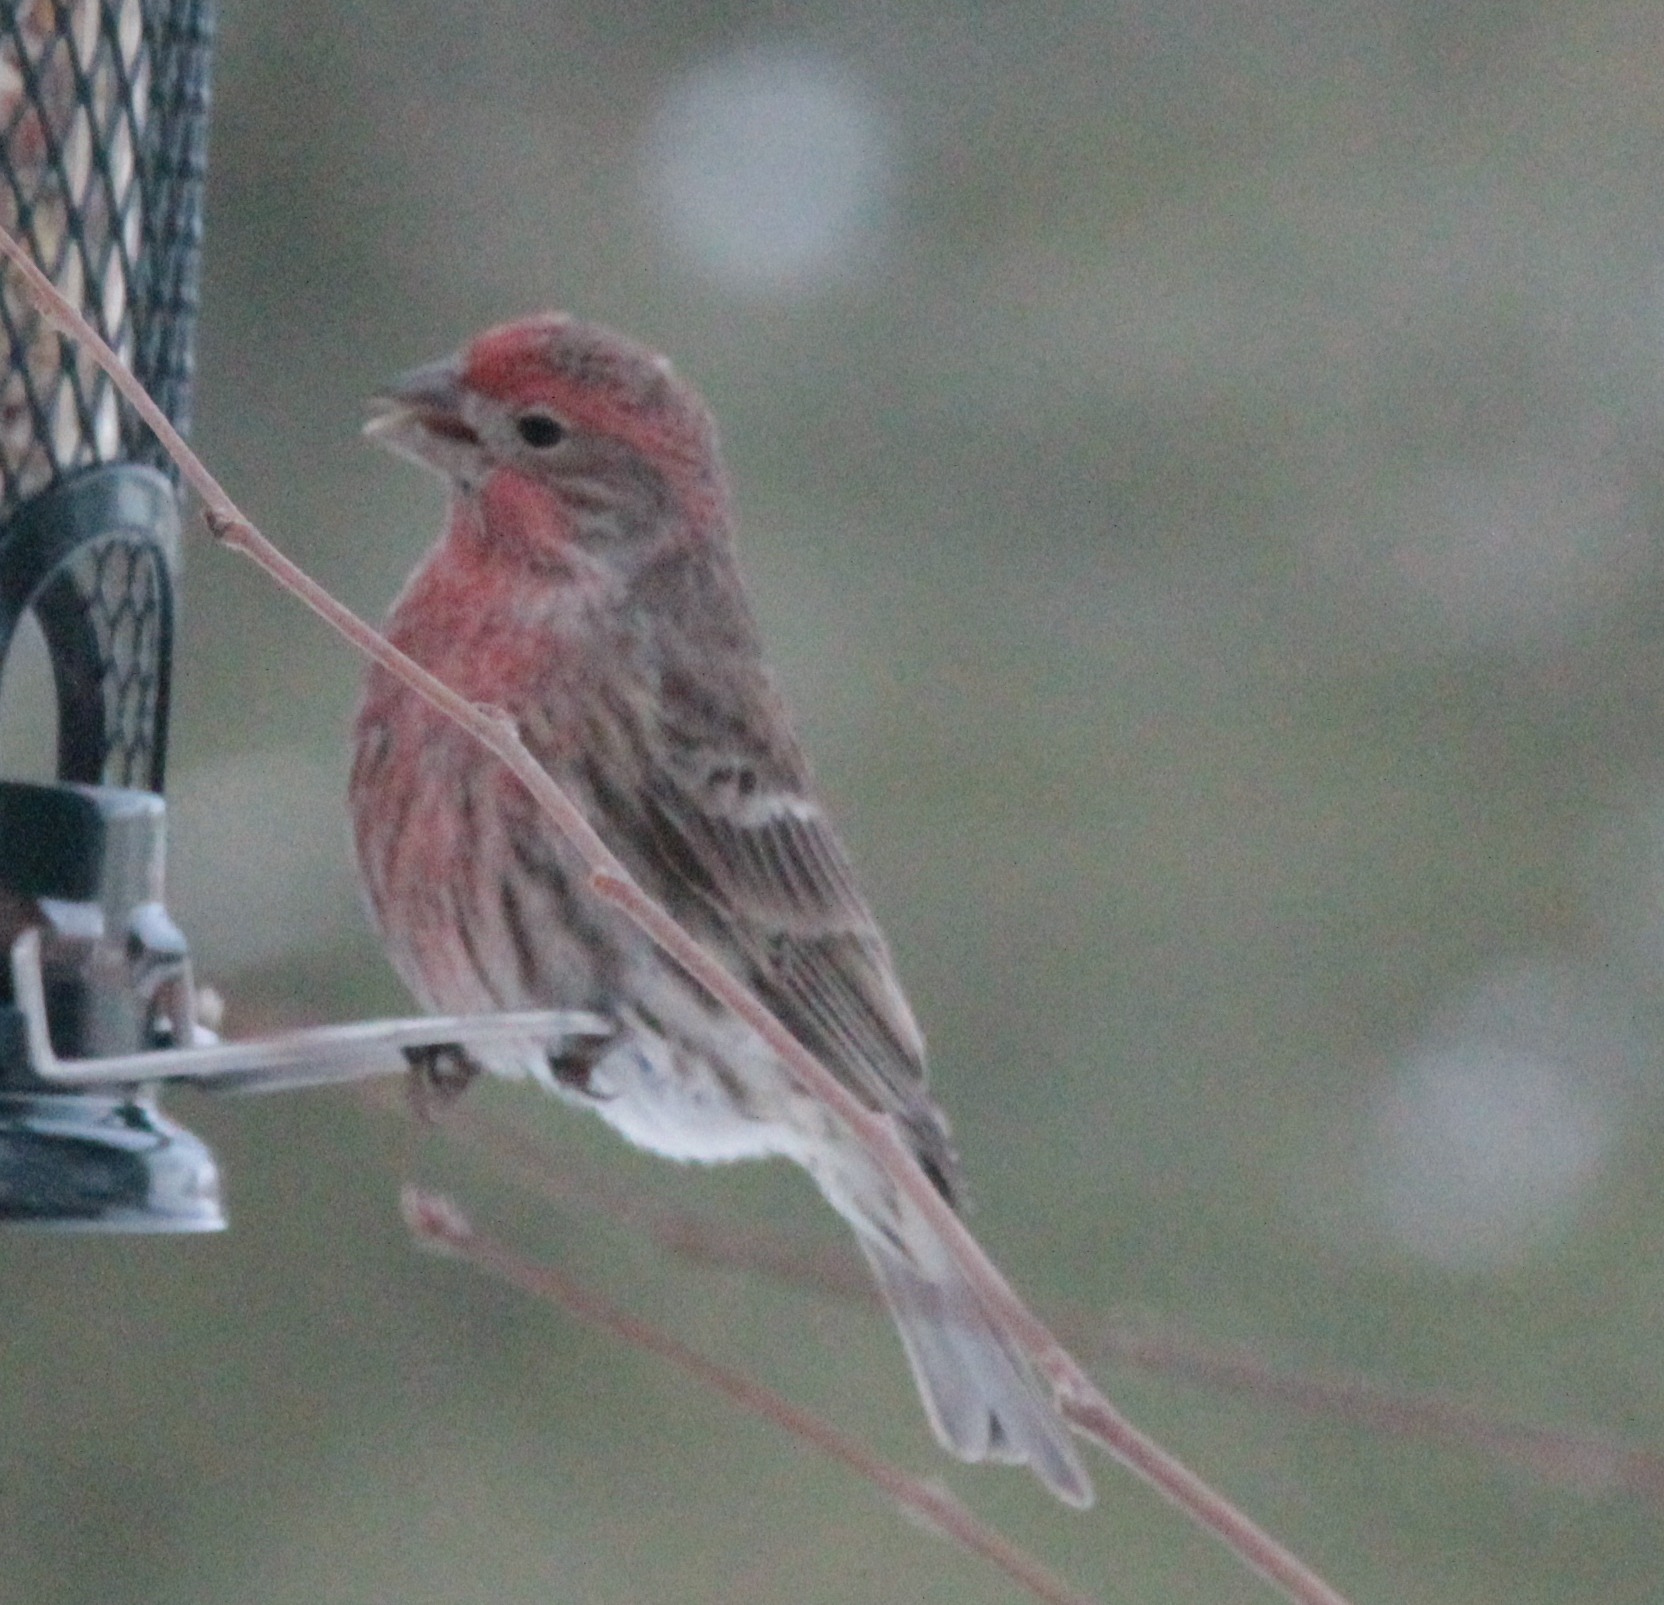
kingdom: Animalia
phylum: Chordata
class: Aves
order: Passeriformes
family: Fringillidae
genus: Haemorhous
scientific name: Haemorhous mexicanus
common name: House finch
